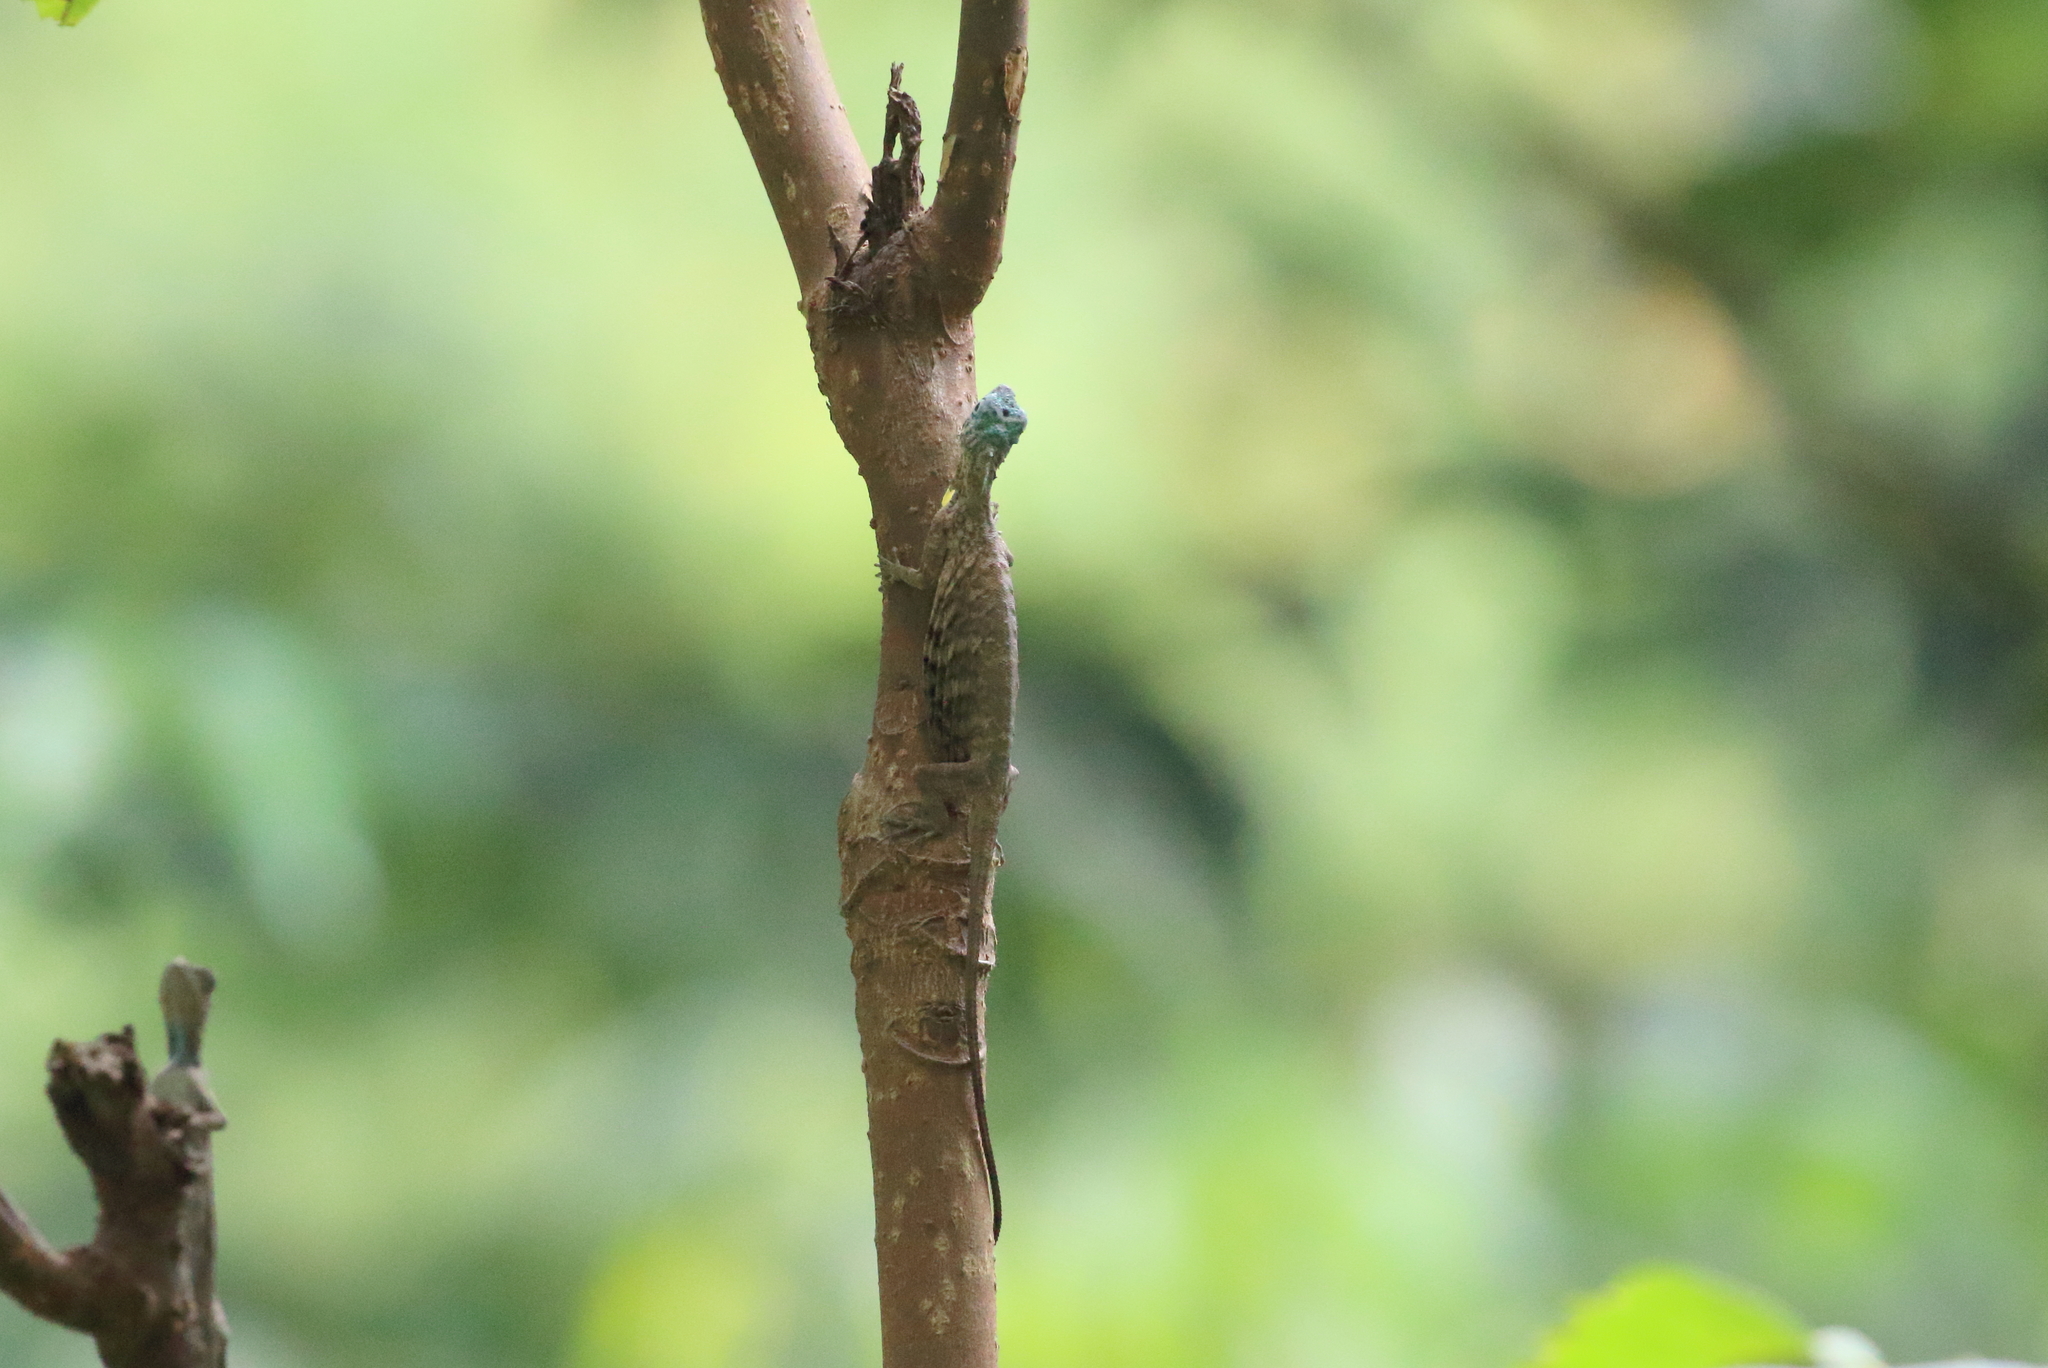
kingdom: Animalia
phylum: Chordata
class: Squamata
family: Agamidae
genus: Draco
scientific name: Draco sumatranus
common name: Common gliding lizard
